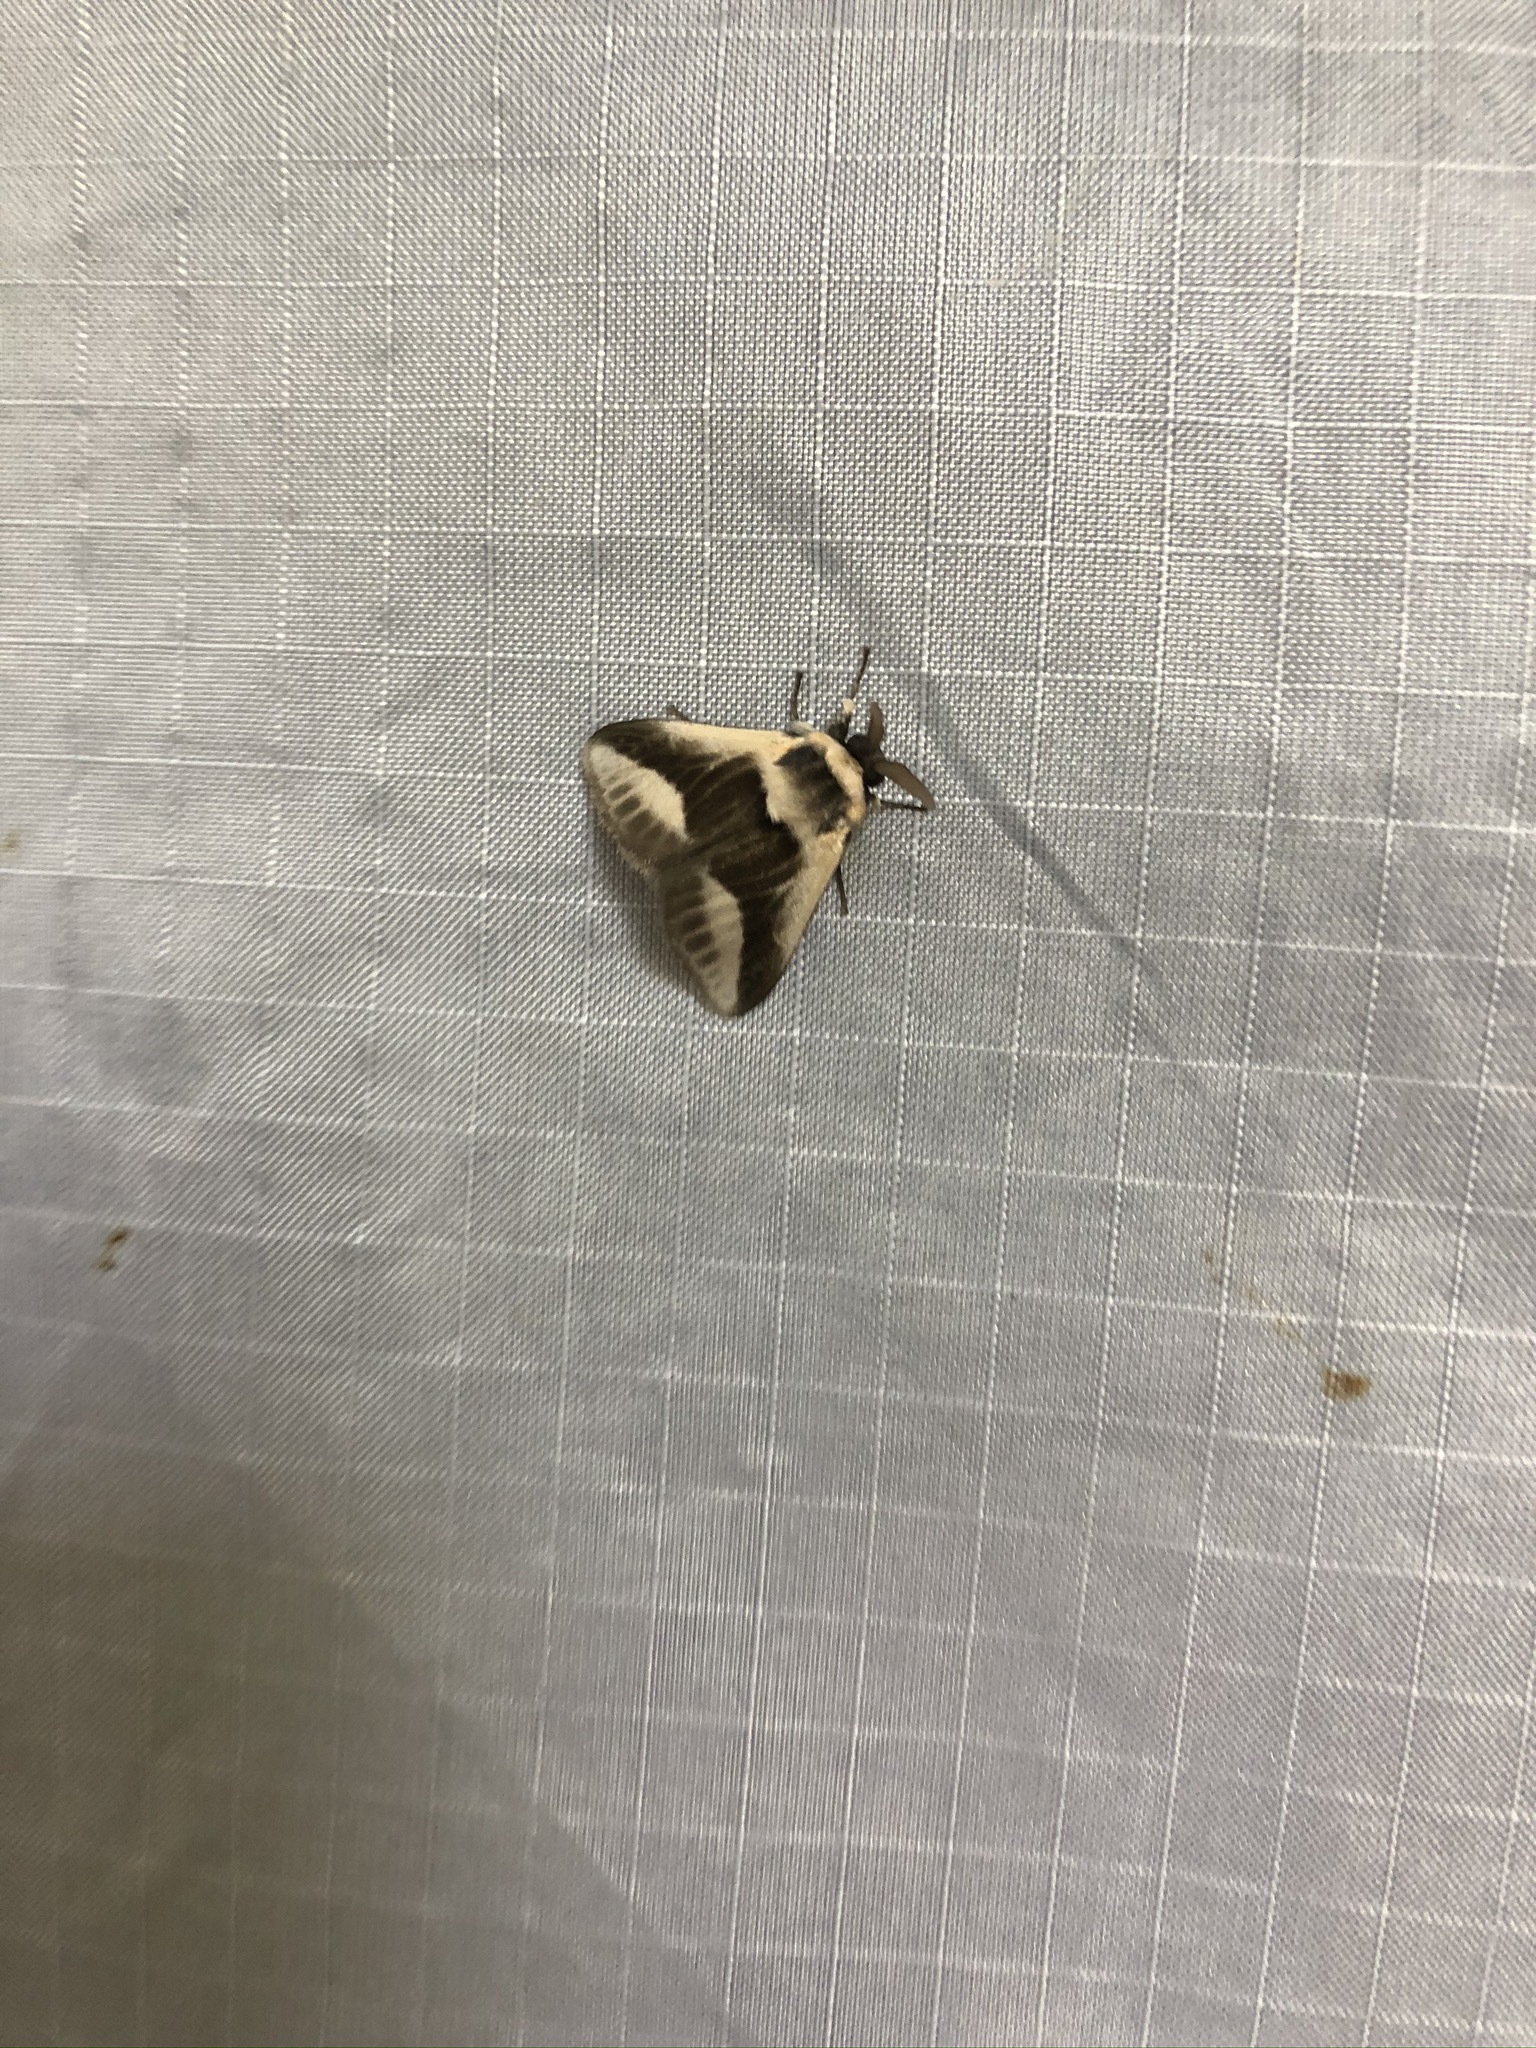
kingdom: Animalia
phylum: Arthropoda
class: Insecta
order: Lepidoptera
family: Megalopygidae
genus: Mesoscia
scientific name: Mesoscia dyari
